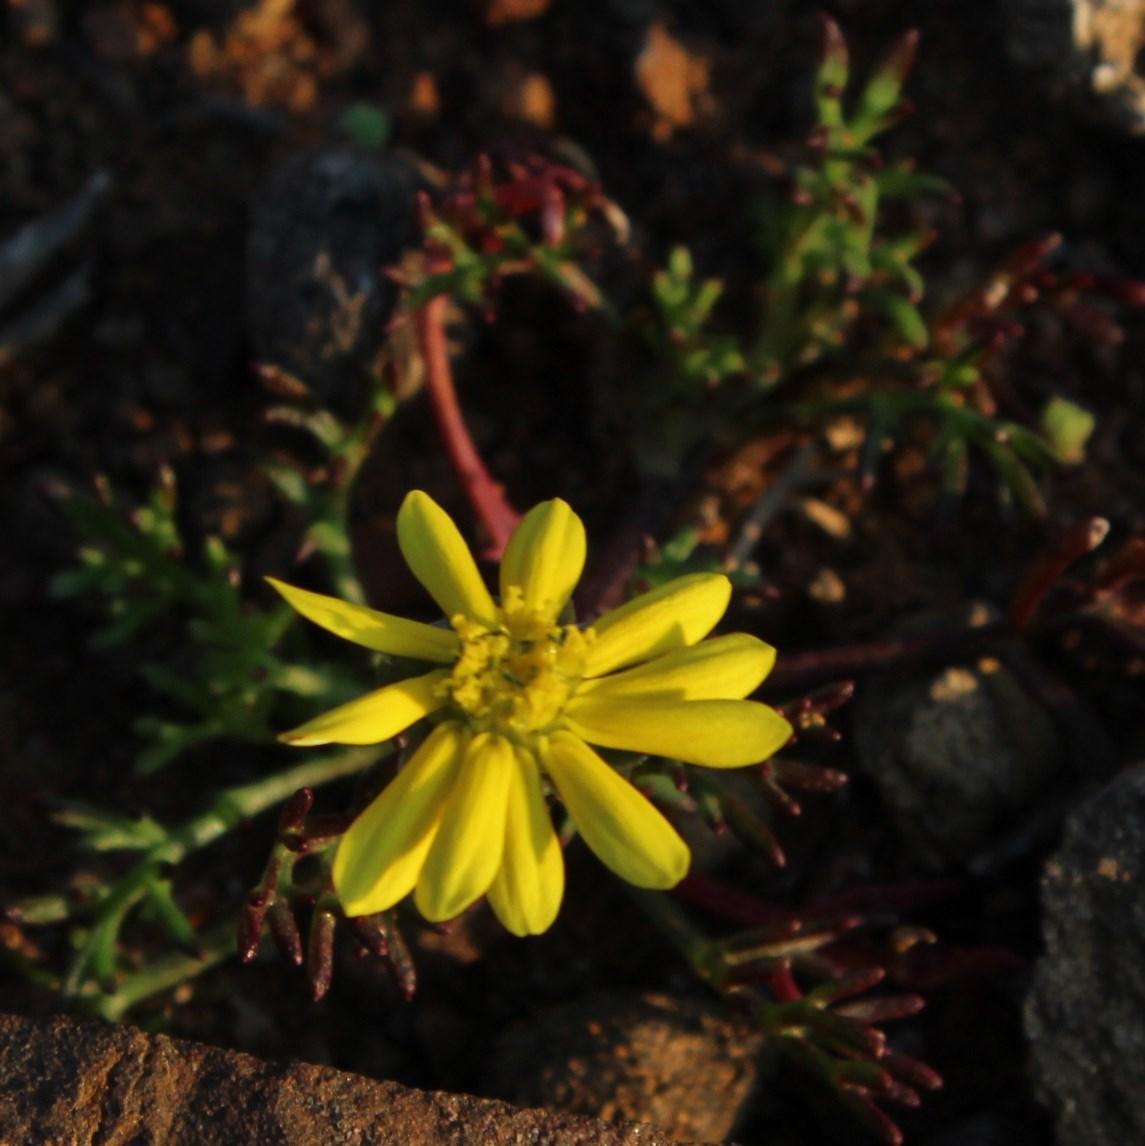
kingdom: Plantae
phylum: Tracheophyta
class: Magnoliopsida
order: Asterales
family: Asteraceae
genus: Ursinia
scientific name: Ursinia nana
